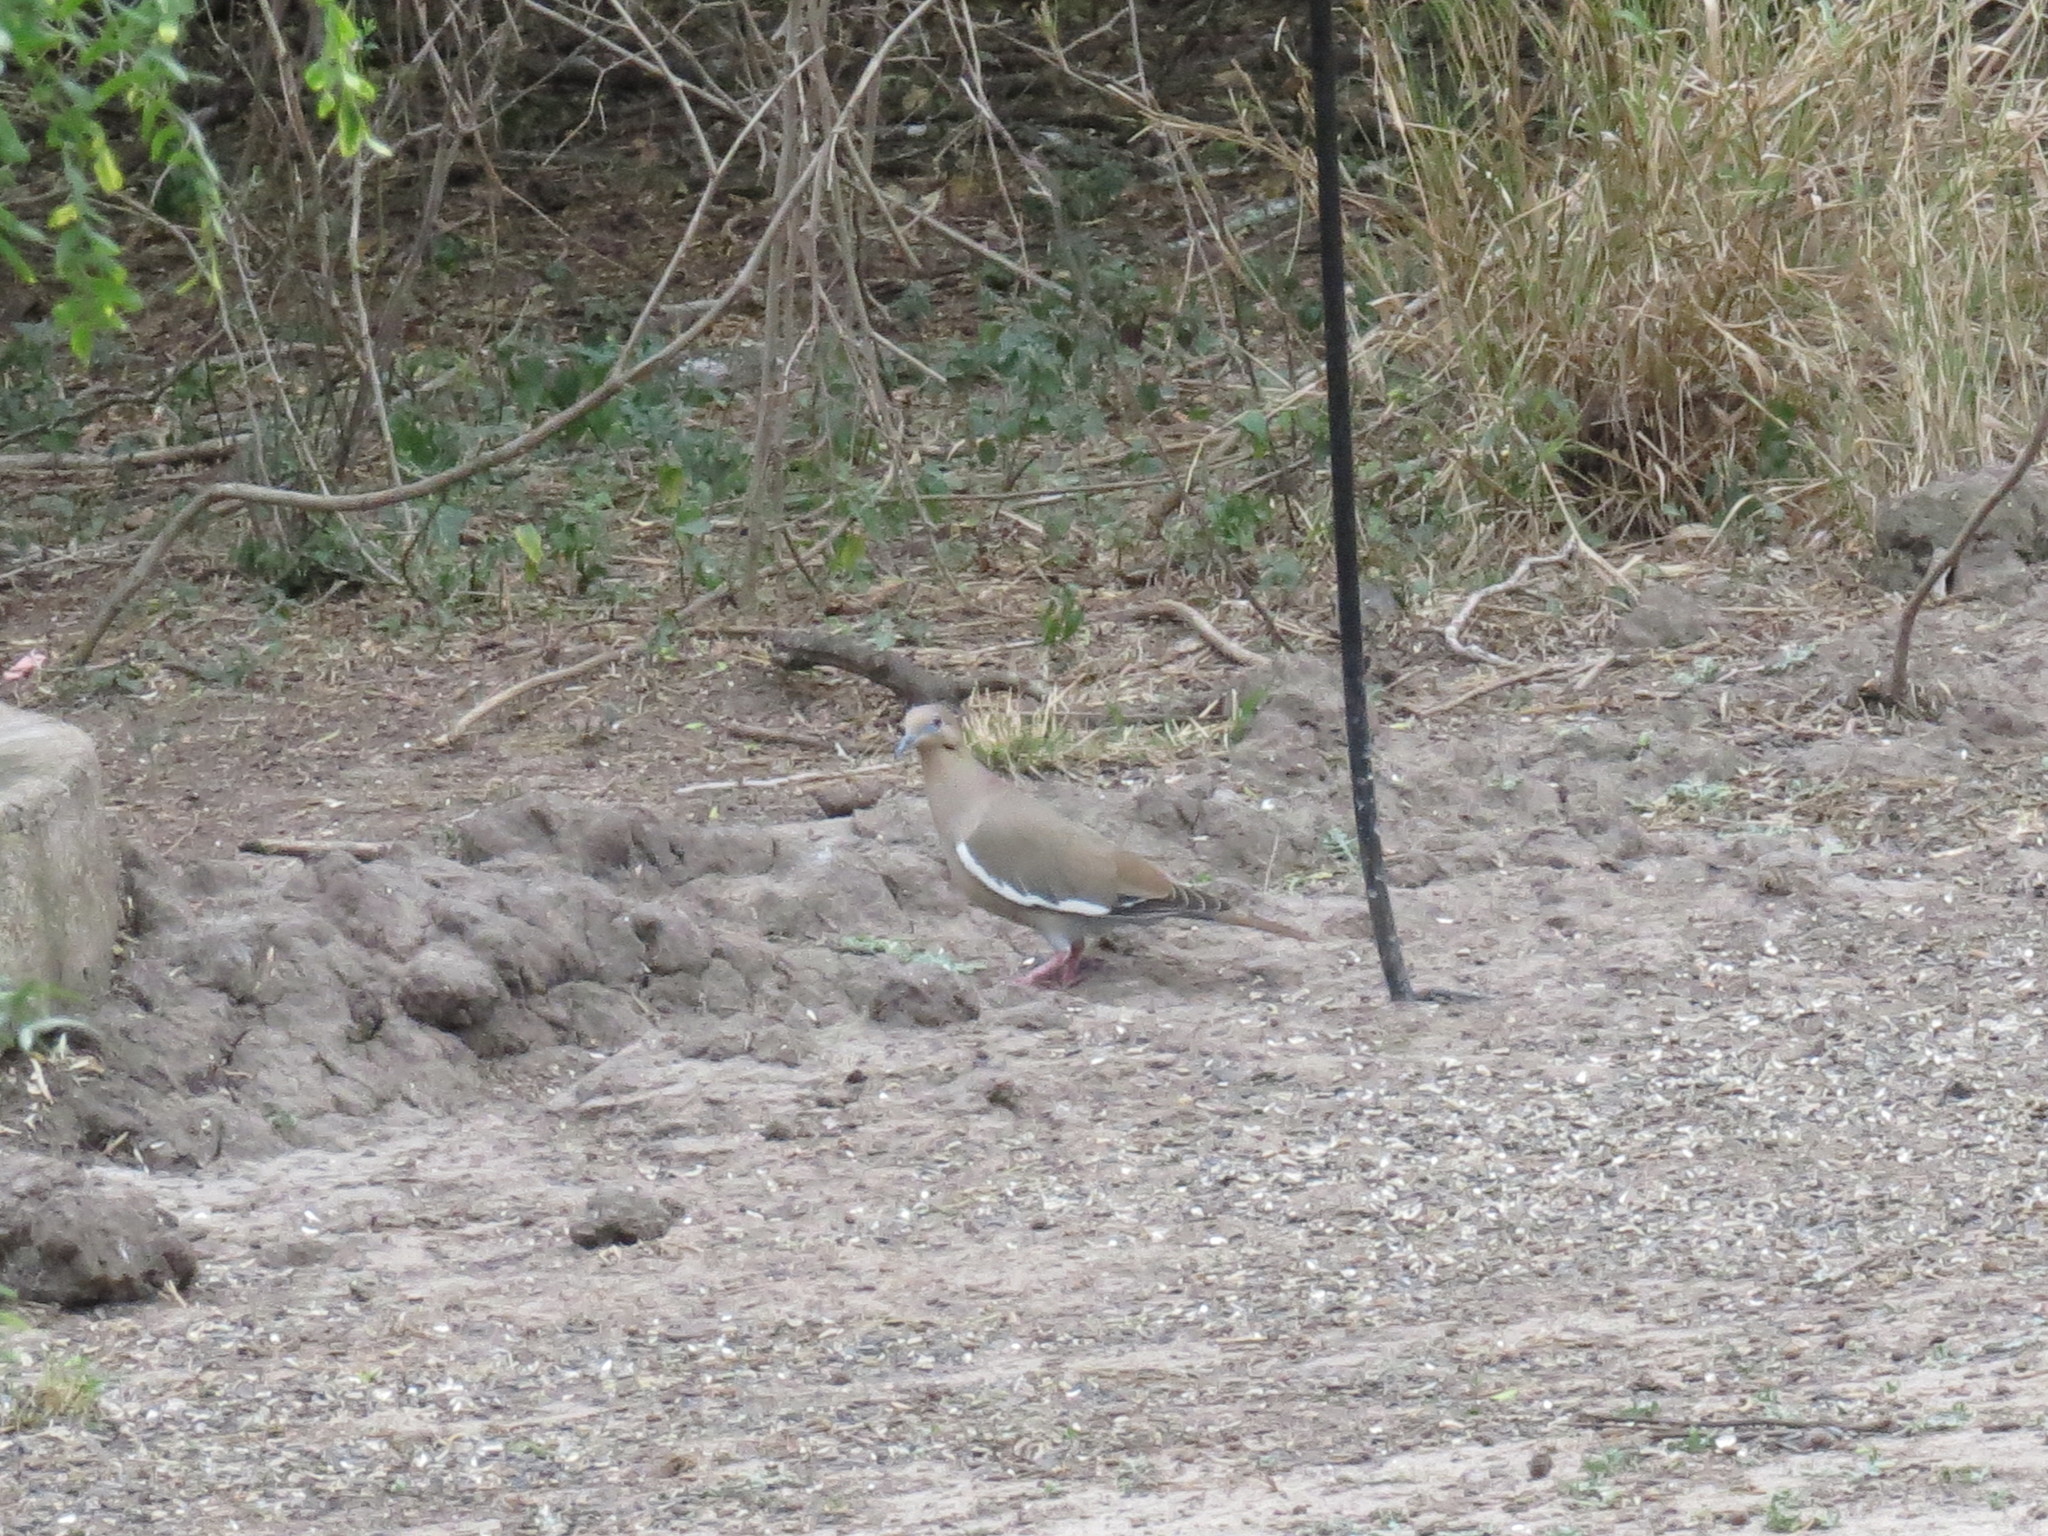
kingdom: Animalia
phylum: Chordata
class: Aves
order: Columbiformes
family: Columbidae
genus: Zenaida
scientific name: Zenaida asiatica
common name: White-winged dove
